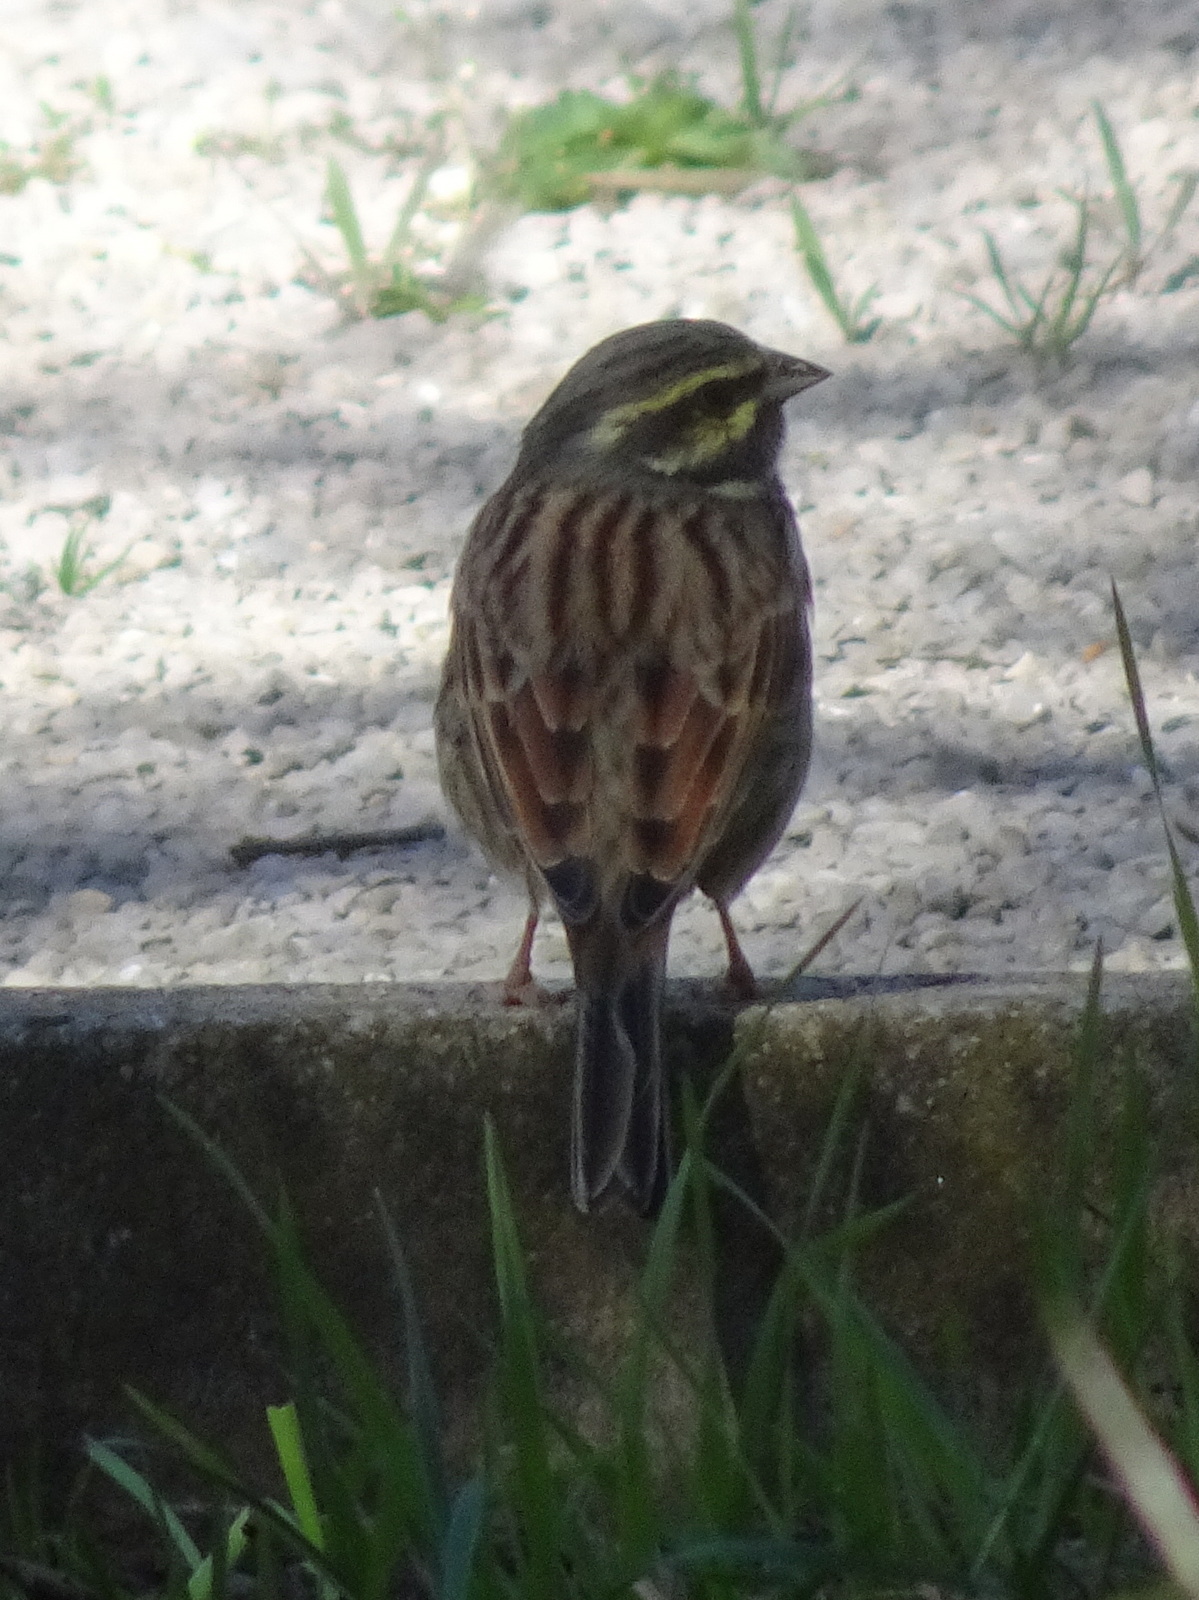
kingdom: Animalia
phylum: Chordata
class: Aves
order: Passeriformes
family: Emberizidae
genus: Emberiza
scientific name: Emberiza cirlus
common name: Cirl bunting
